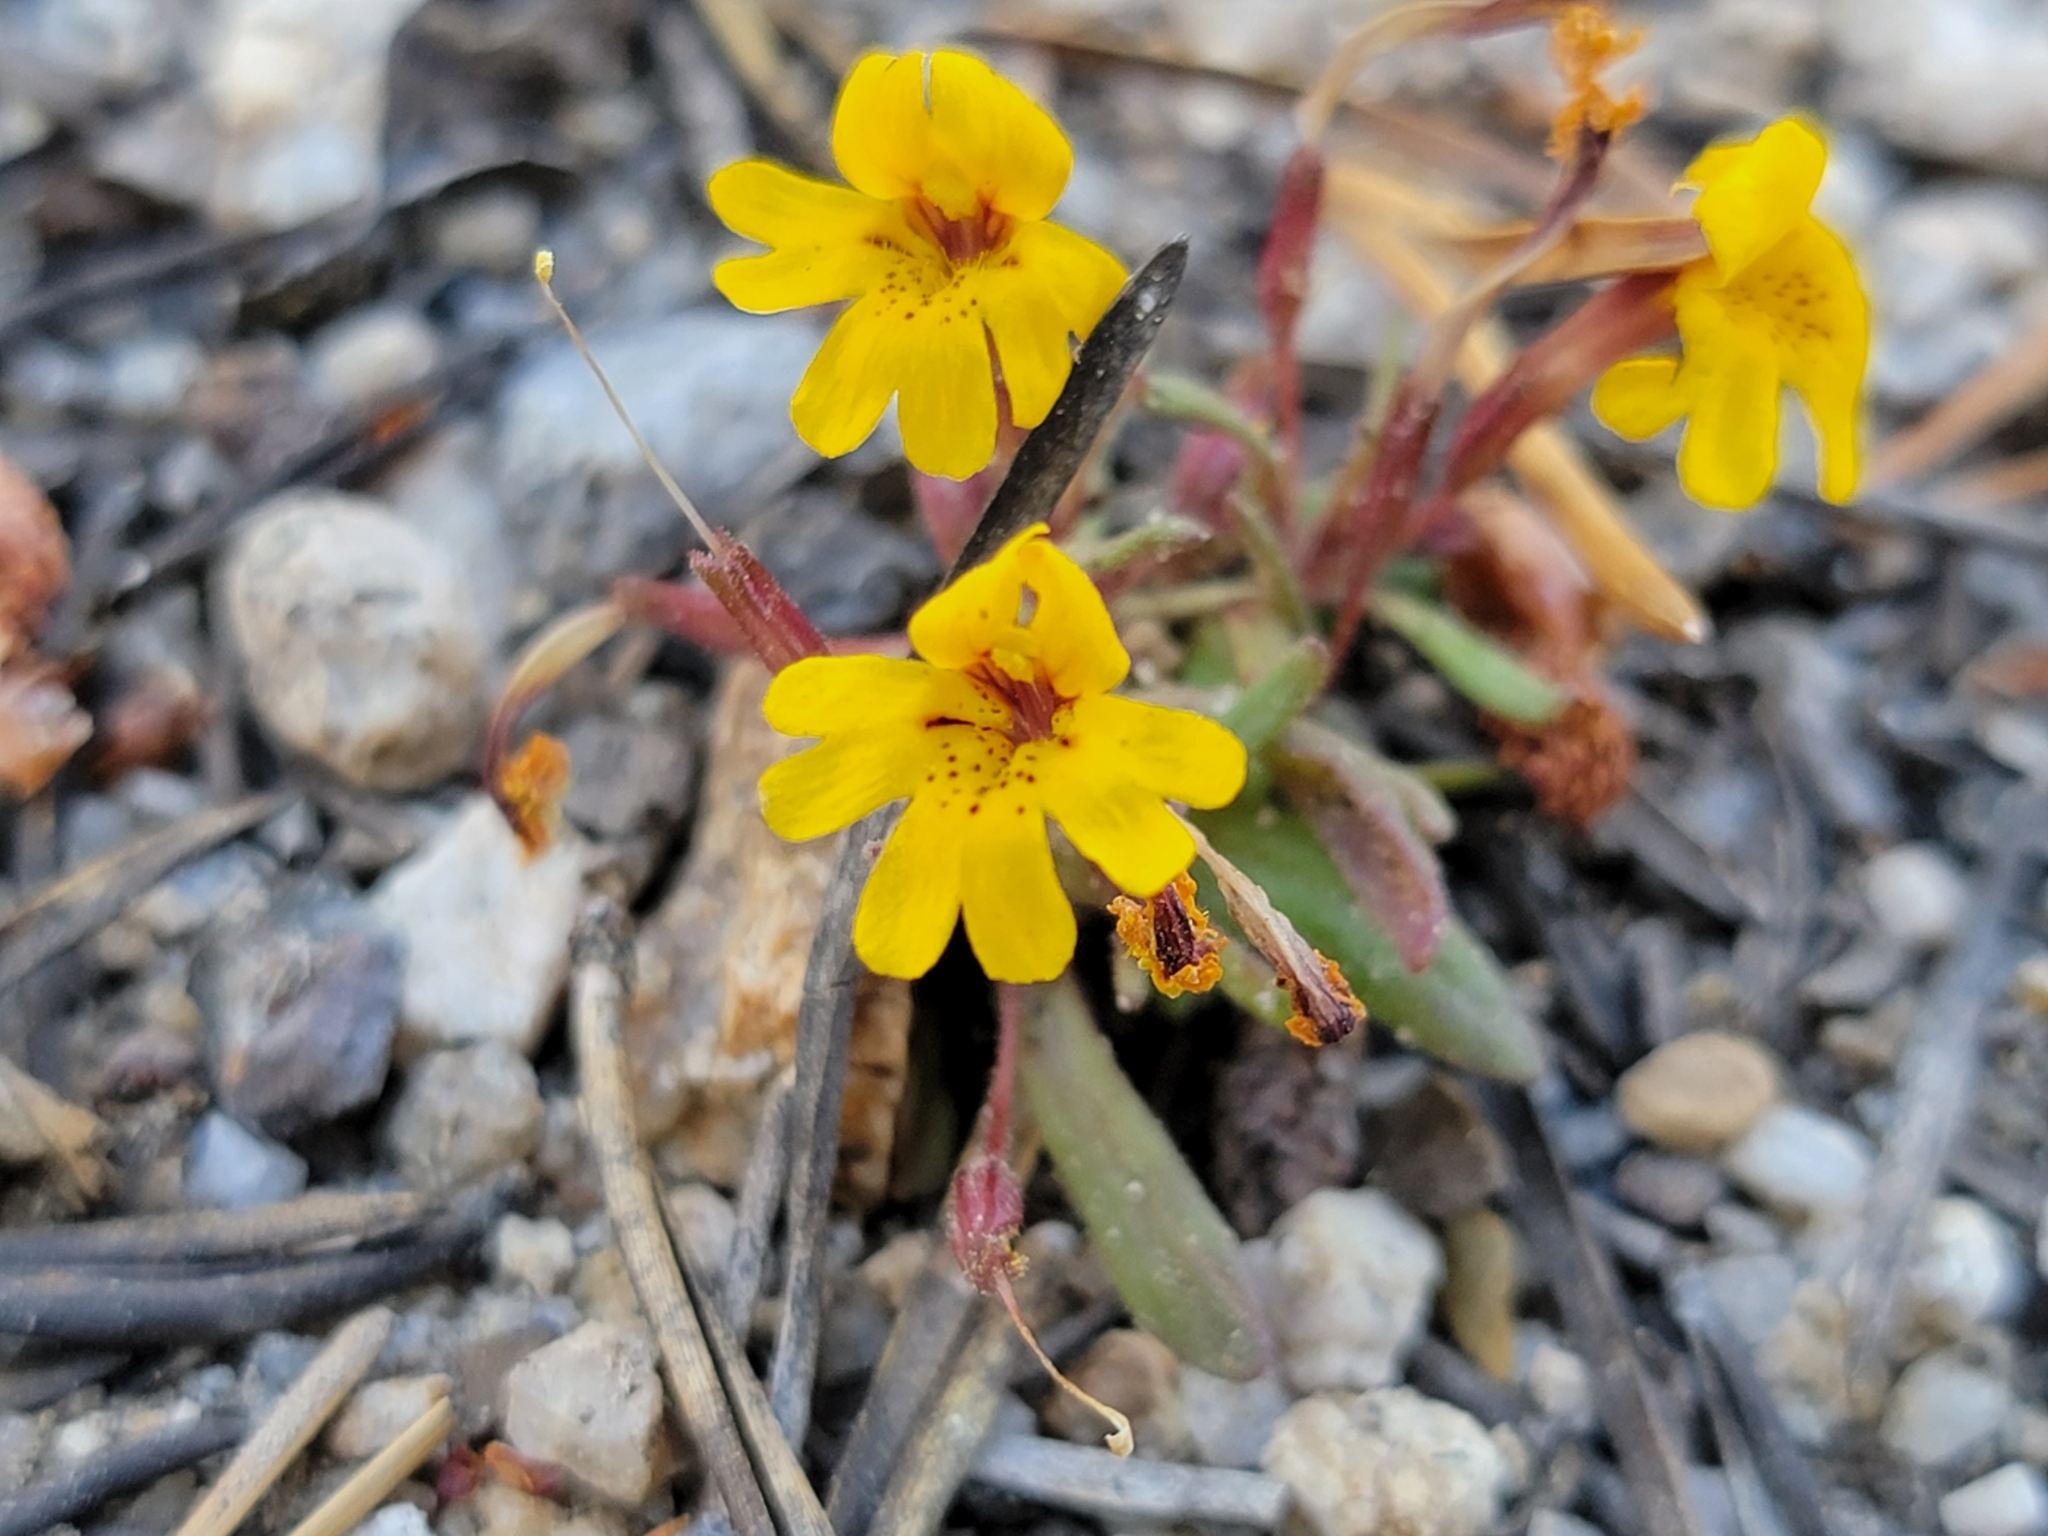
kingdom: Plantae
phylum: Tracheophyta
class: Magnoliopsida
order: Lamiales
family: Phrymaceae
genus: Erythranthe
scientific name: Erythranthe barbata
